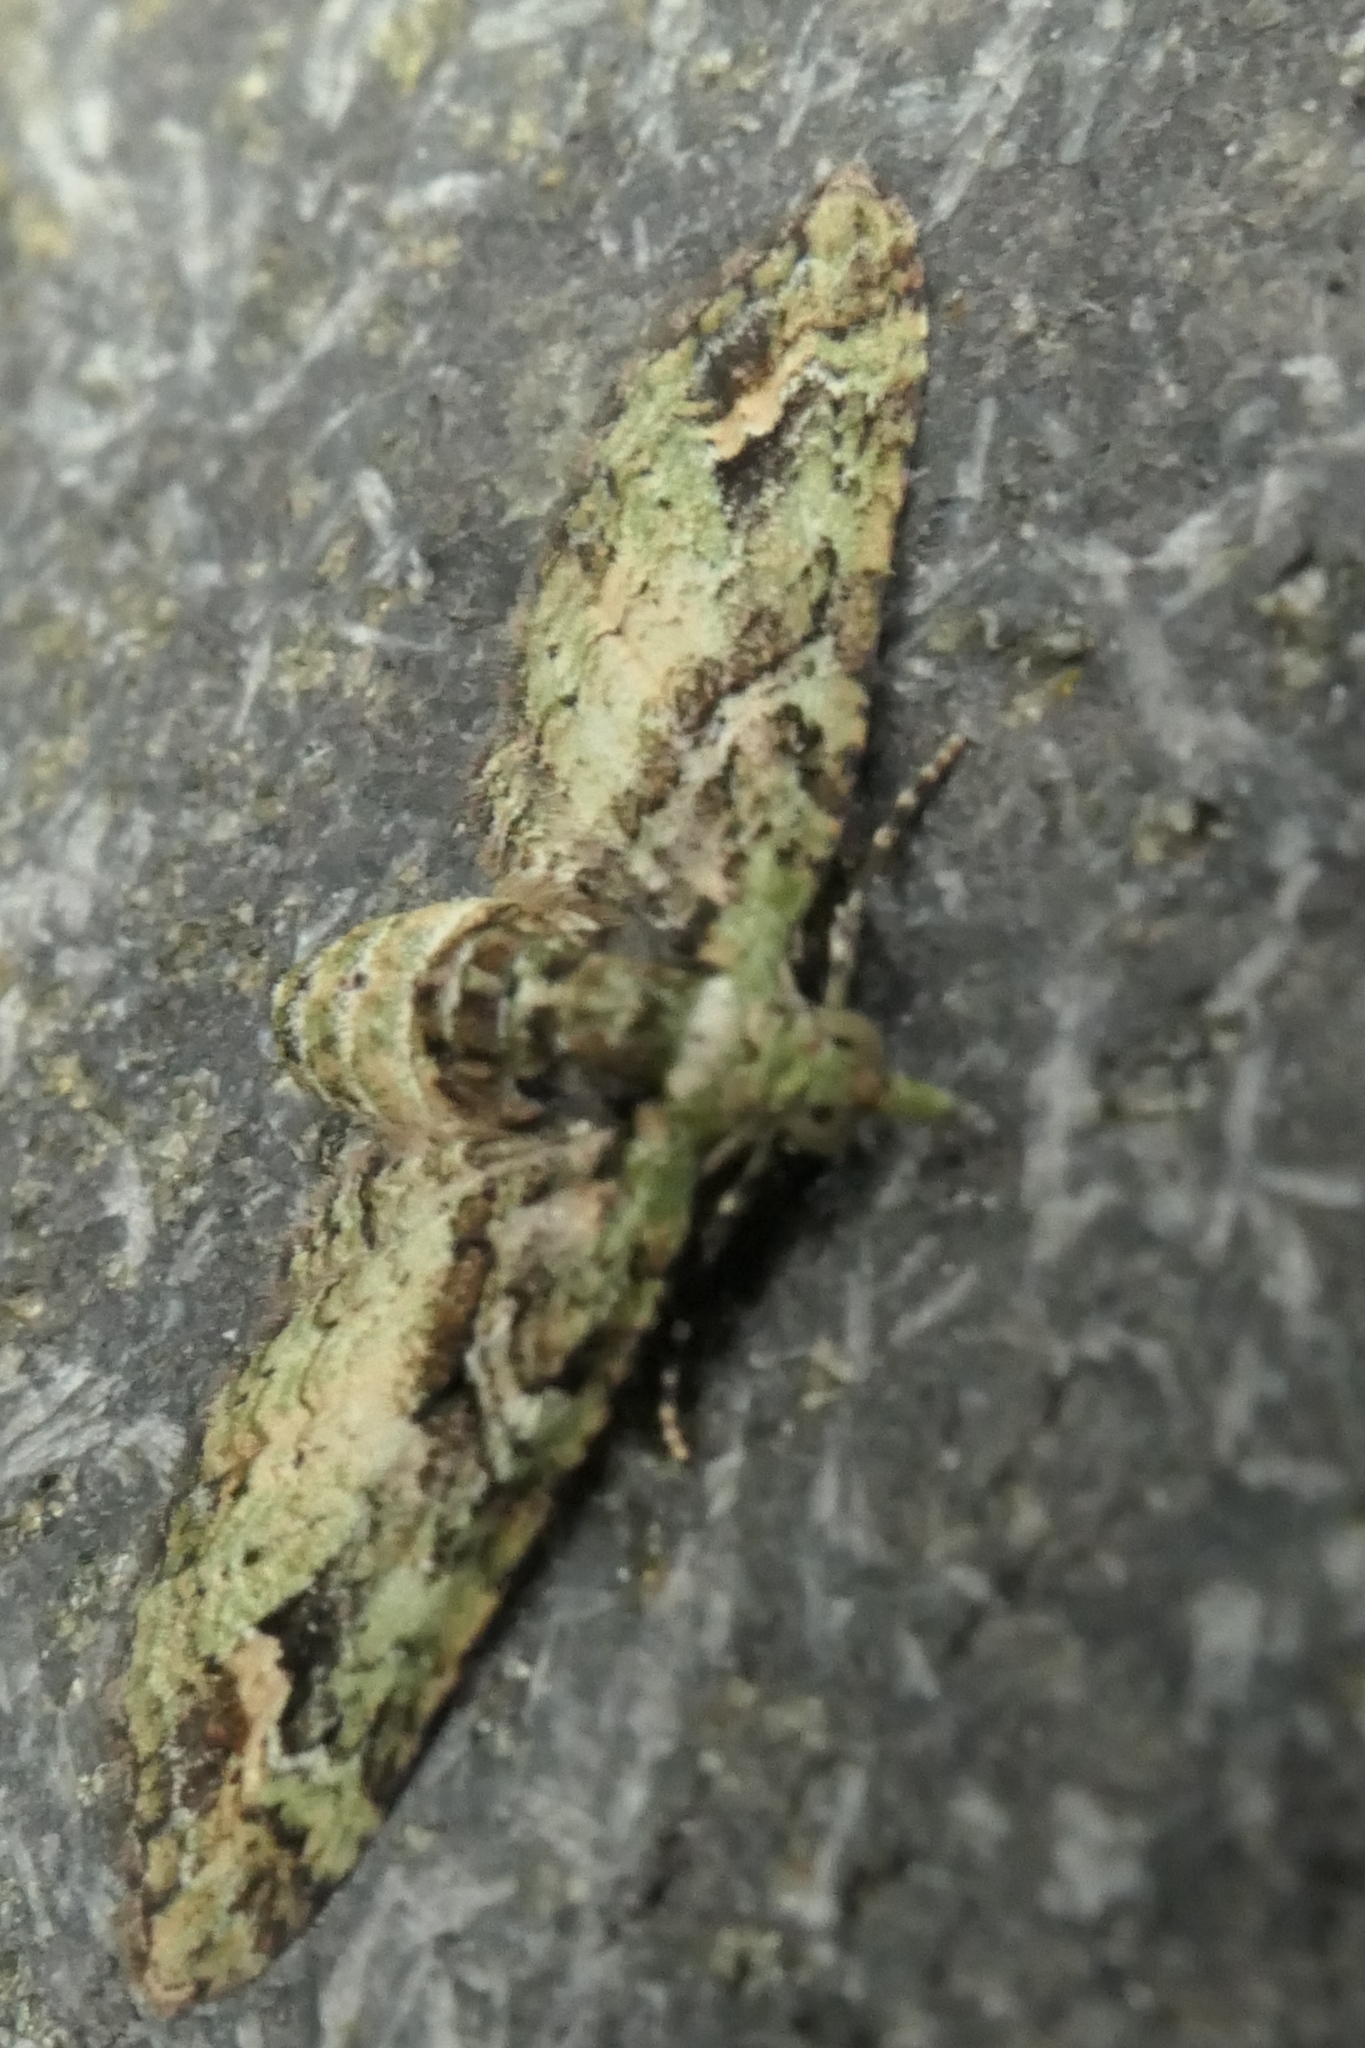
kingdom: Animalia
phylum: Arthropoda
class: Insecta
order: Lepidoptera
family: Geometridae
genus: Idaea
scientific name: Idaea mutanda
